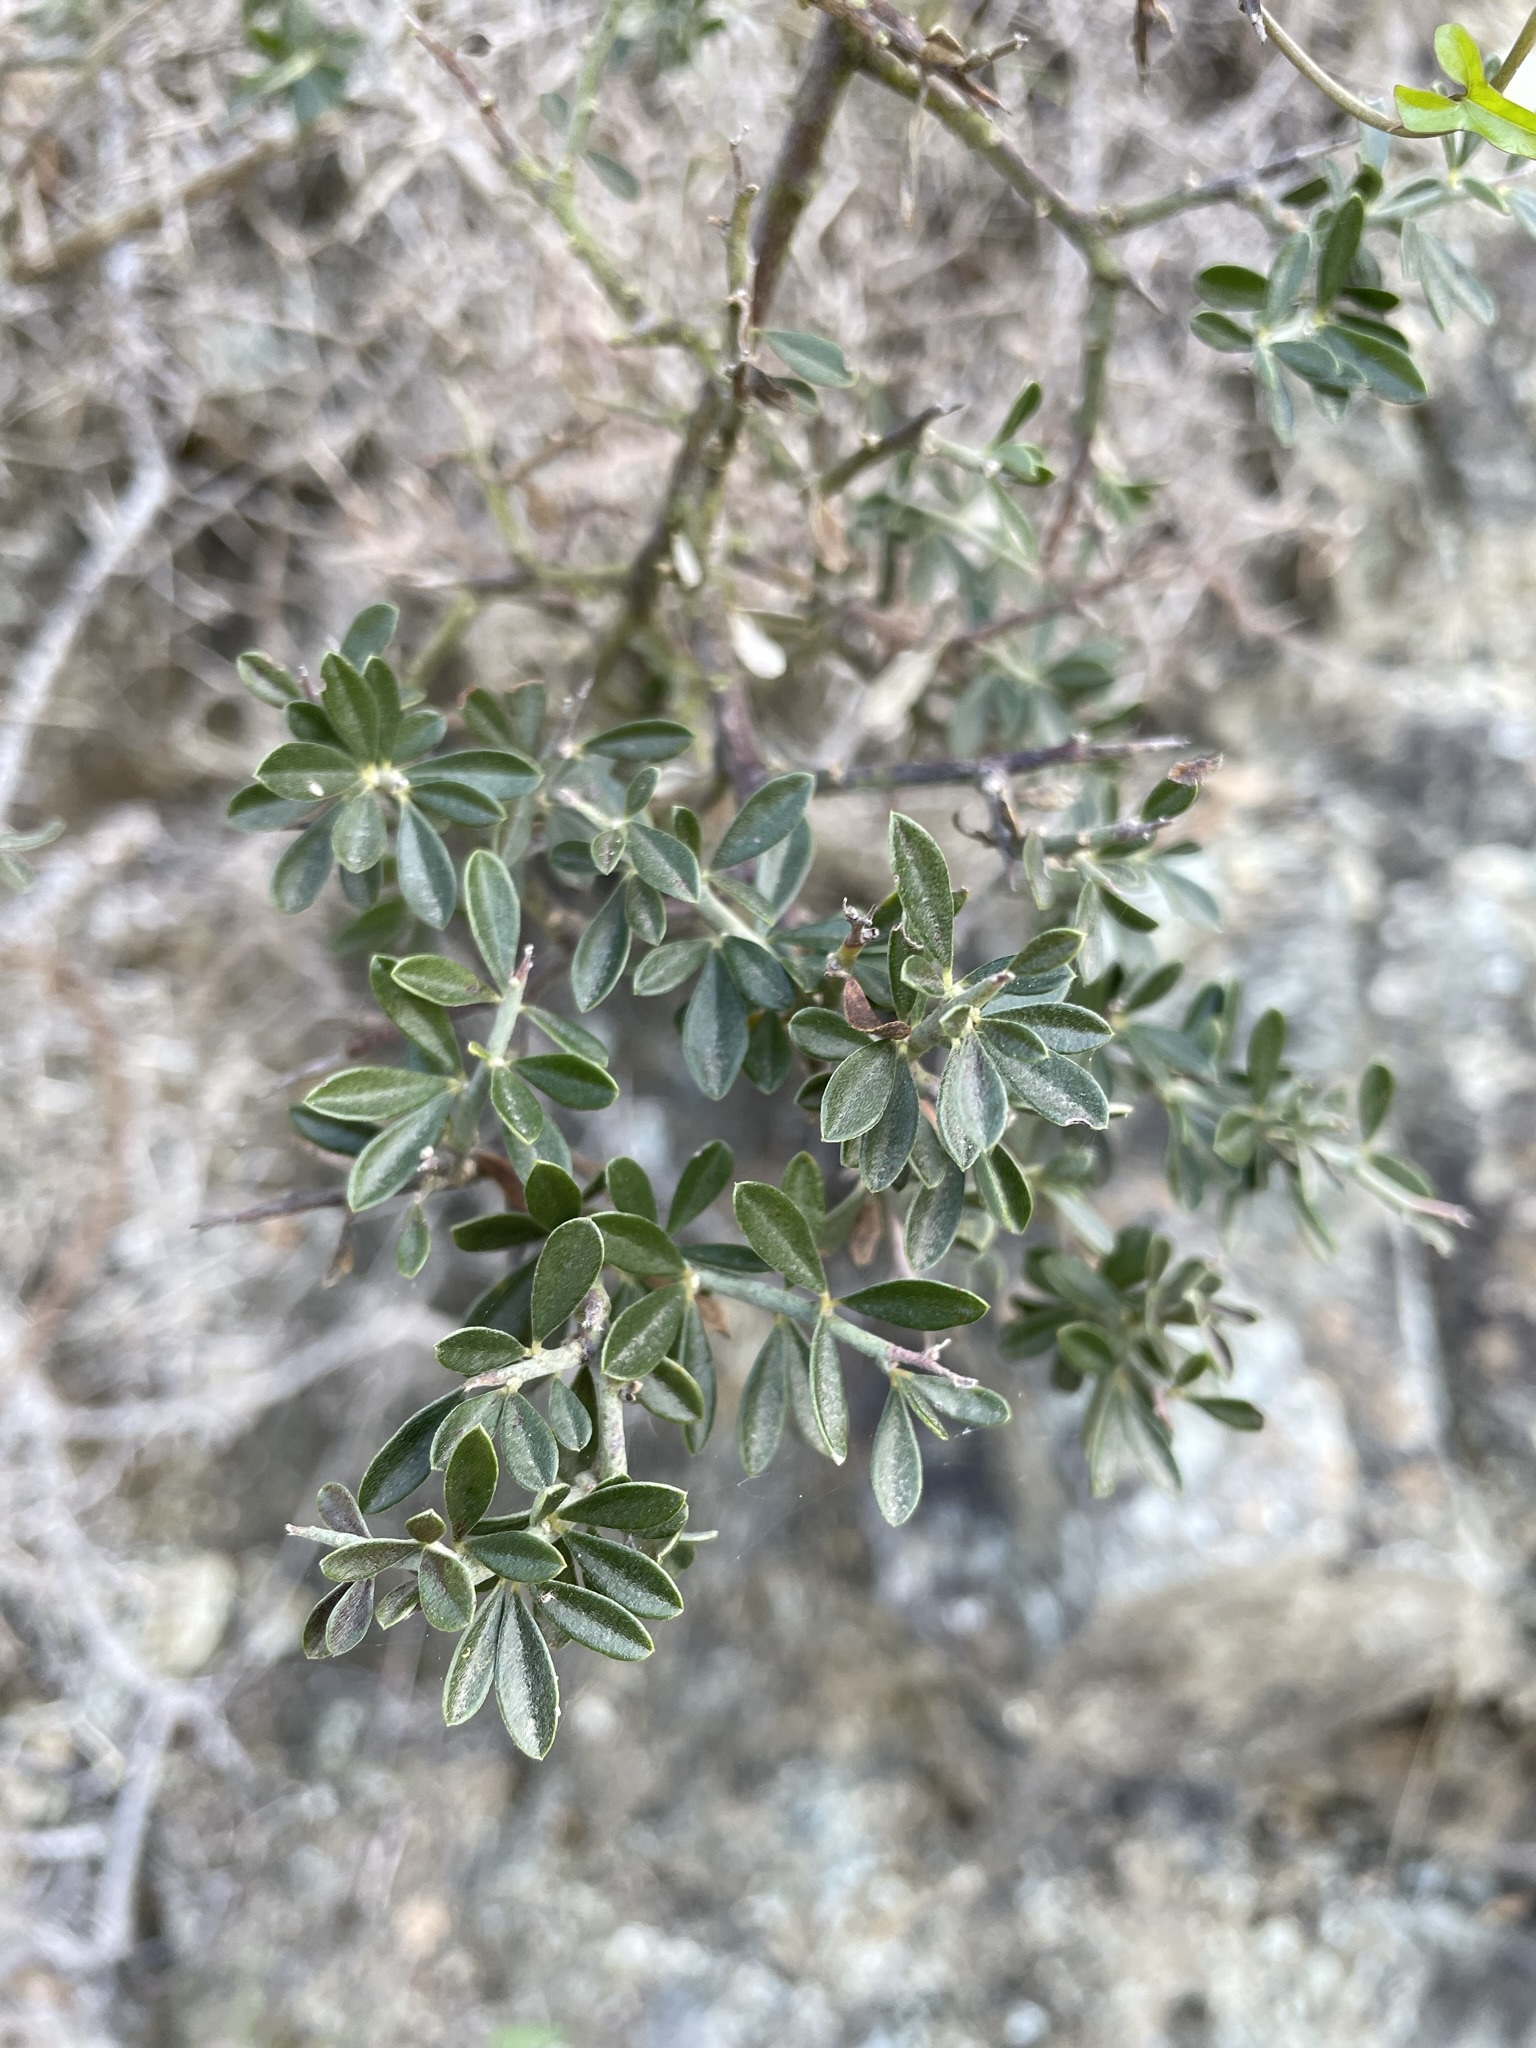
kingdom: Plantae
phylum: Tracheophyta
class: Magnoliopsida
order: Fabales
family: Fabaceae
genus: Pickeringia
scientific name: Pickeringia montana
